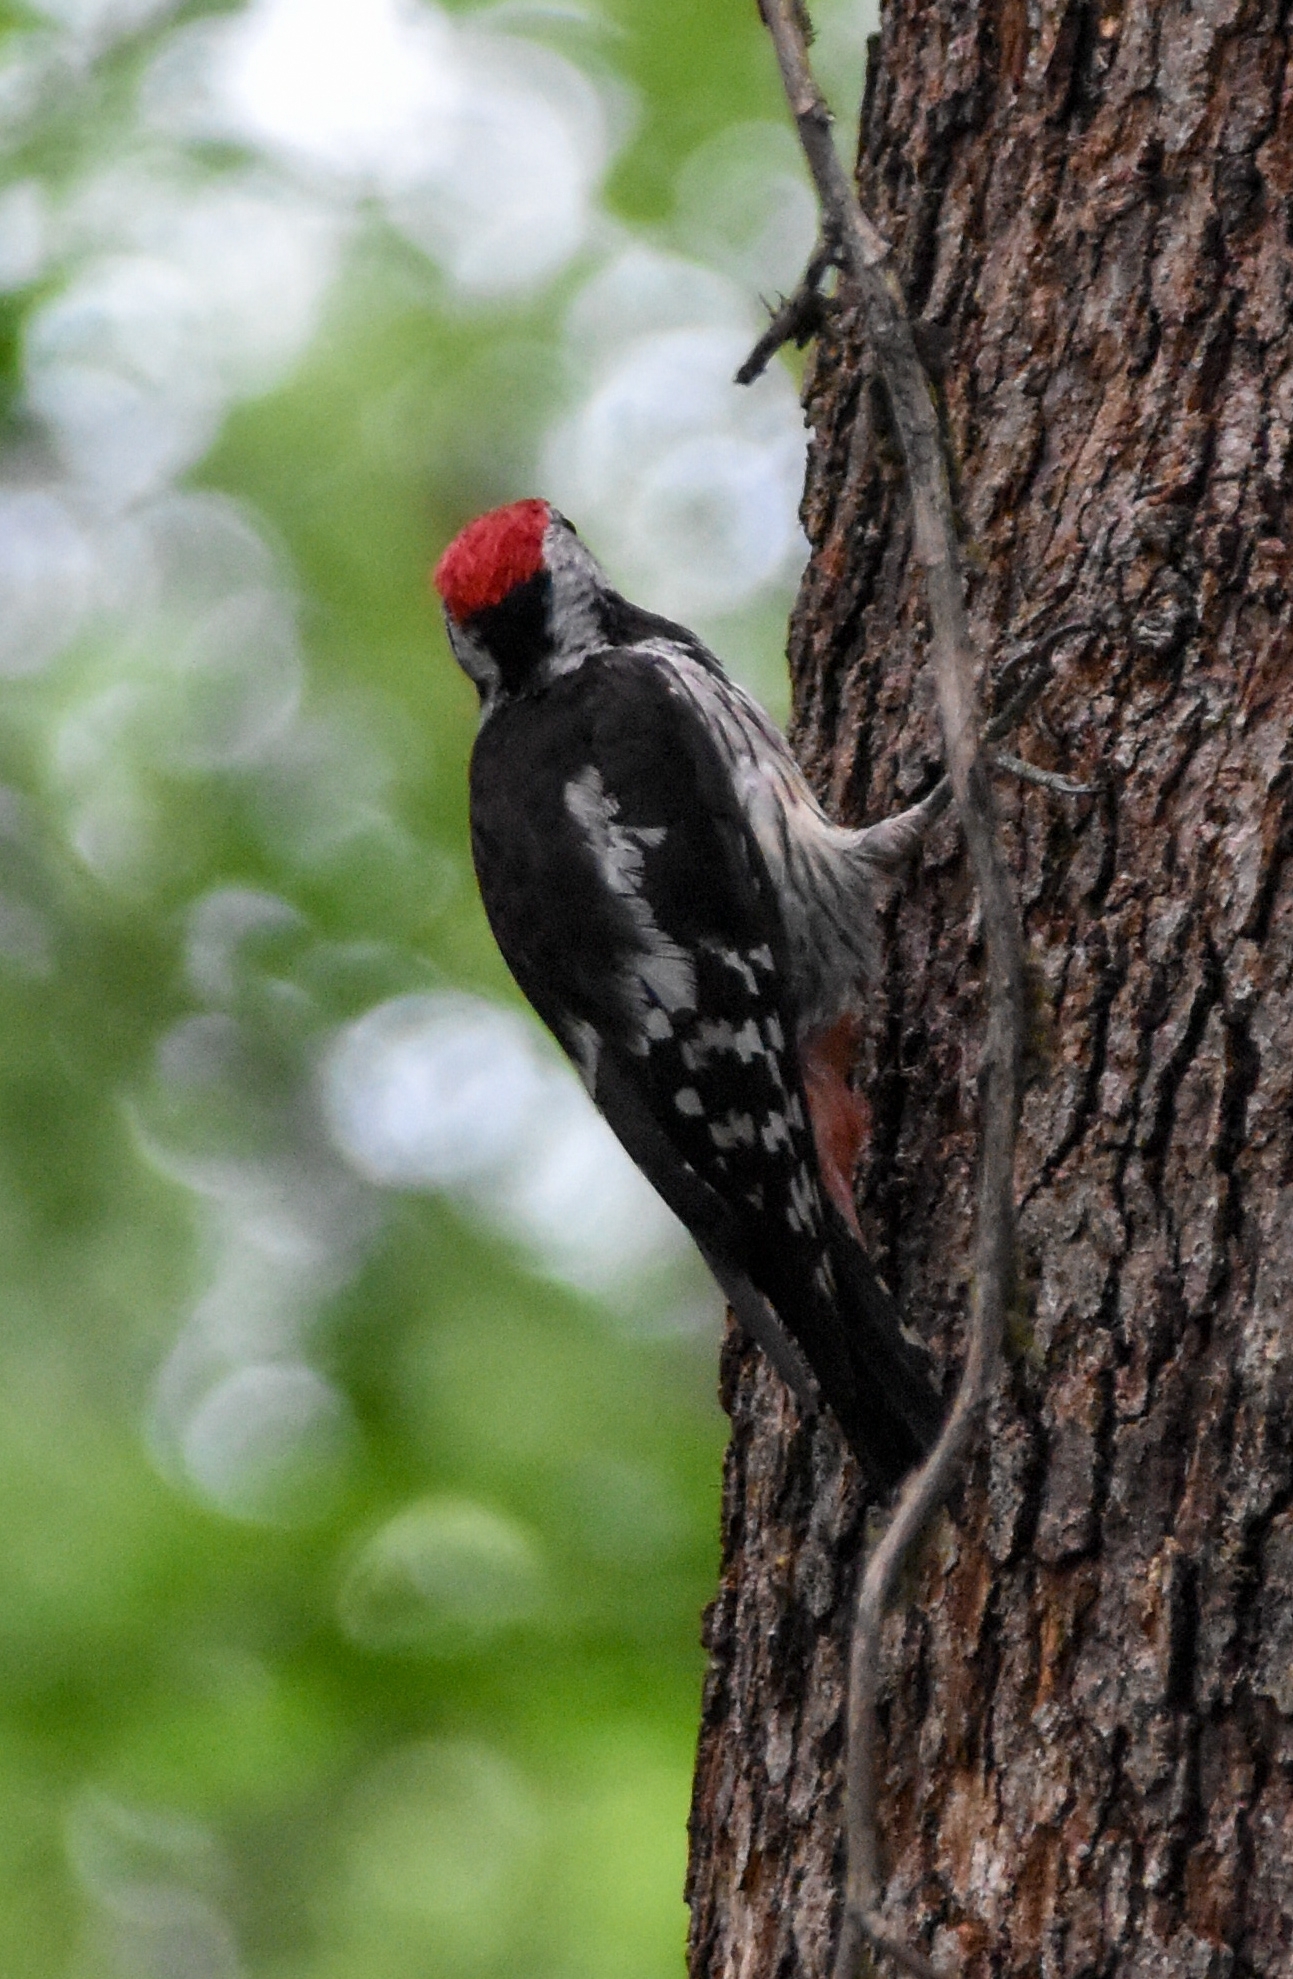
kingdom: Animalia
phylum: Chordata
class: Aves
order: Piciformes
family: Picidae
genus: Dendrocopos
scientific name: Dendrocopos major
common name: Great spotted woodpecker
